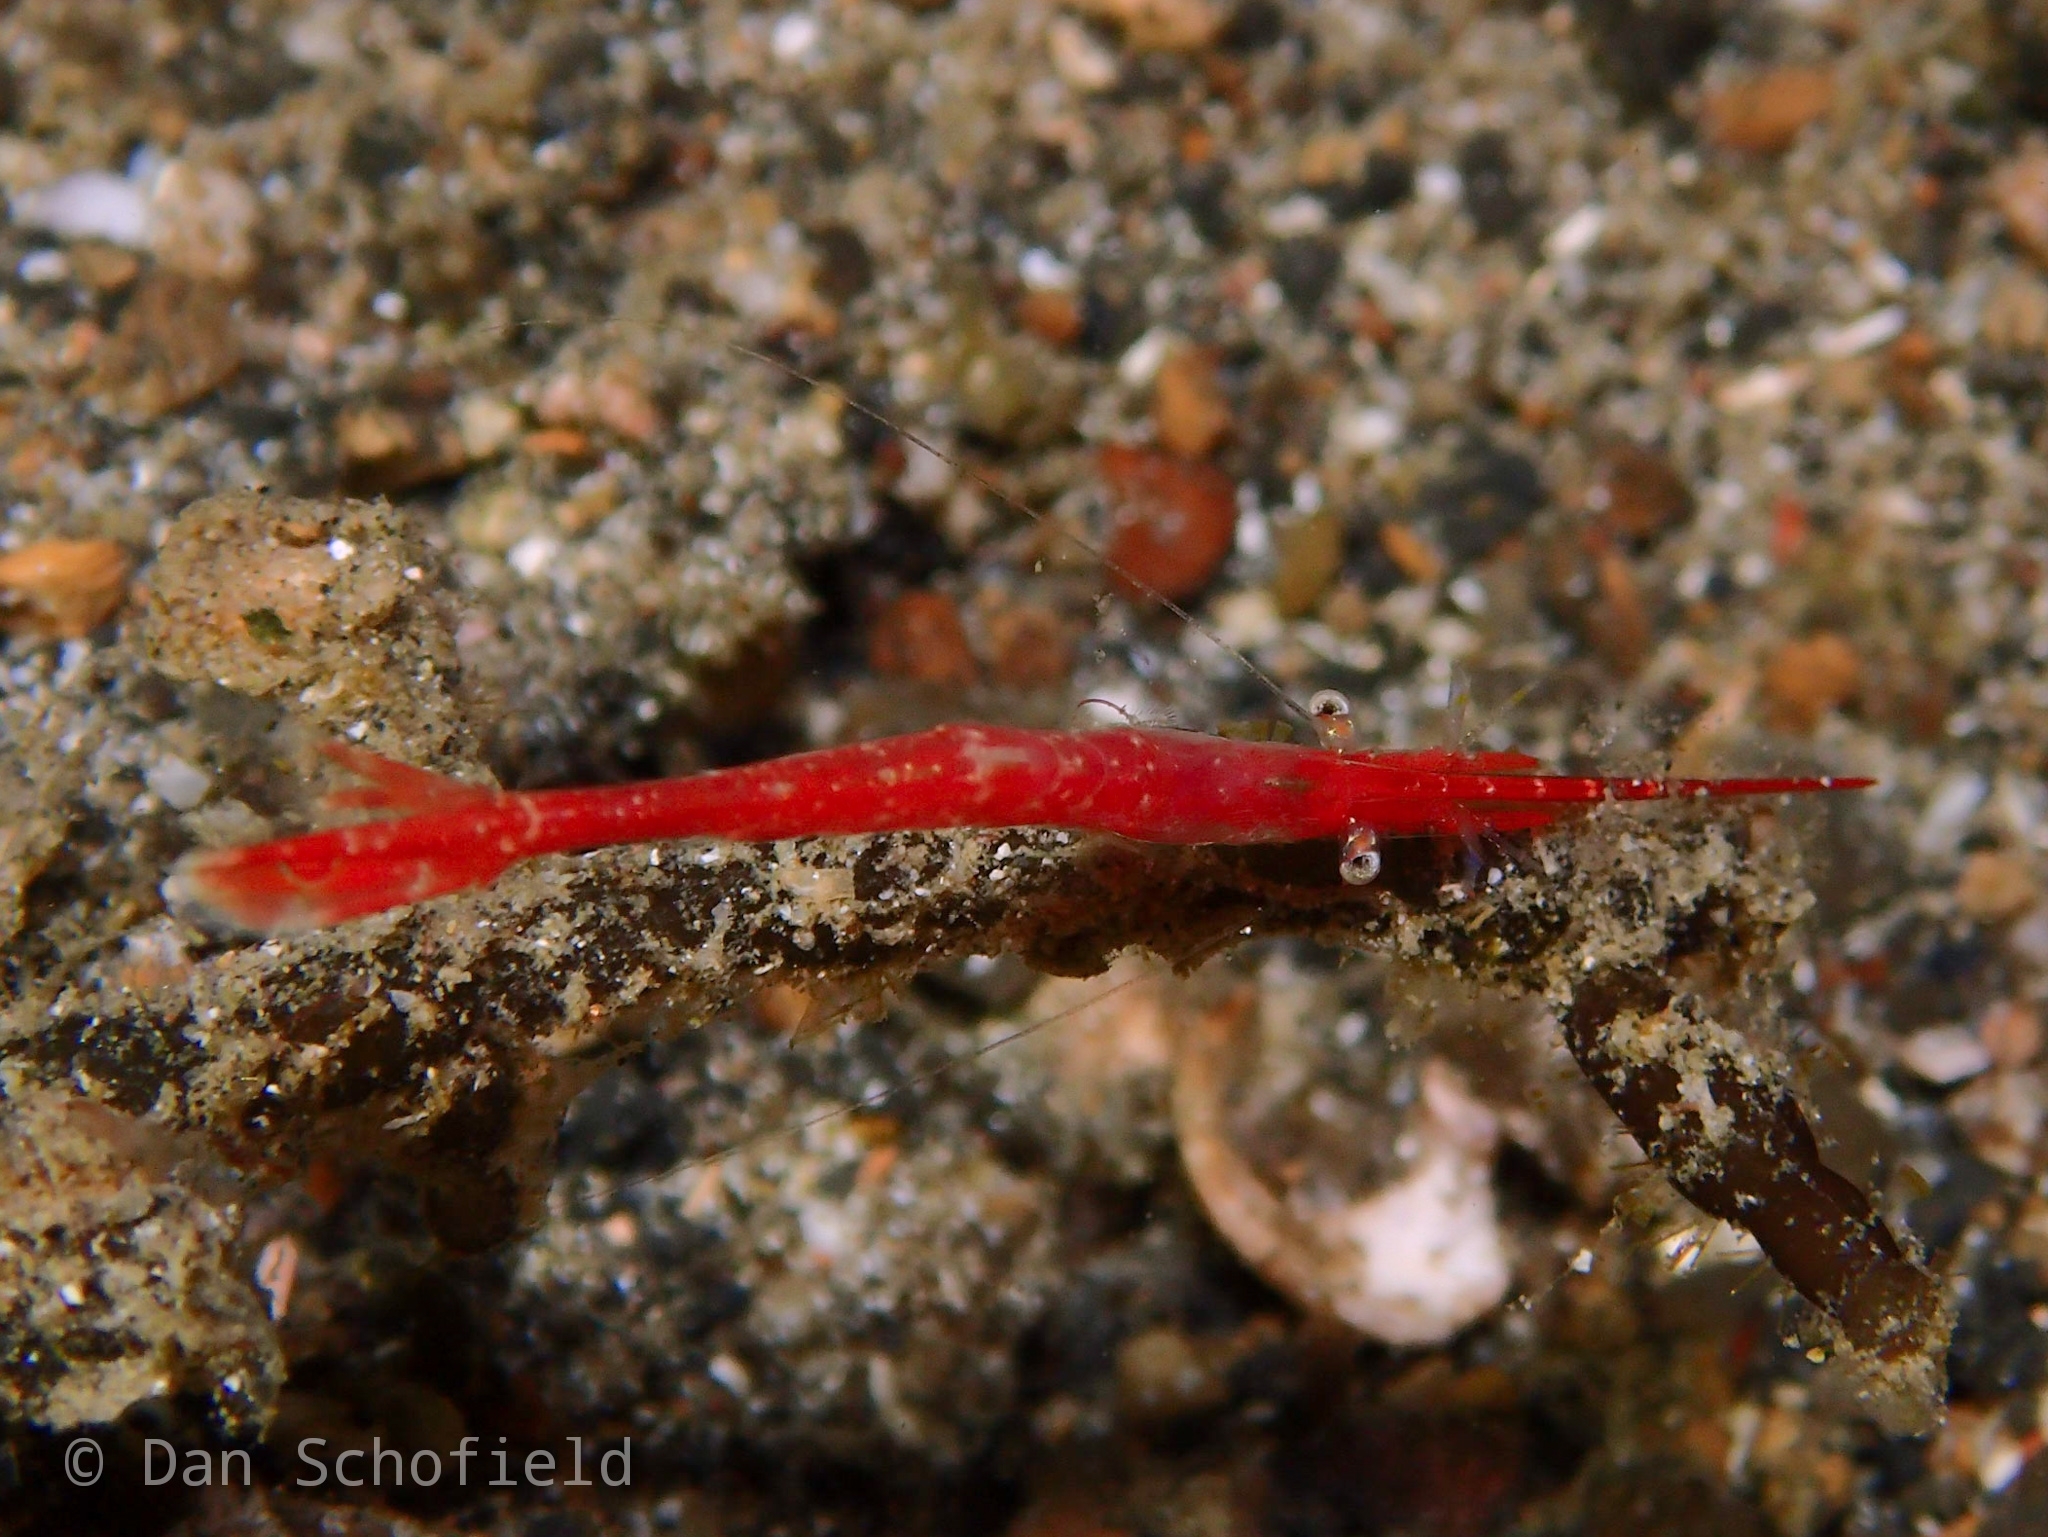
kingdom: Animalia
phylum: Arthropoda
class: Malacostraca
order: Decapoda
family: Hippolytidae
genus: Tozeuma
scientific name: Tozeuma lanceolatum
